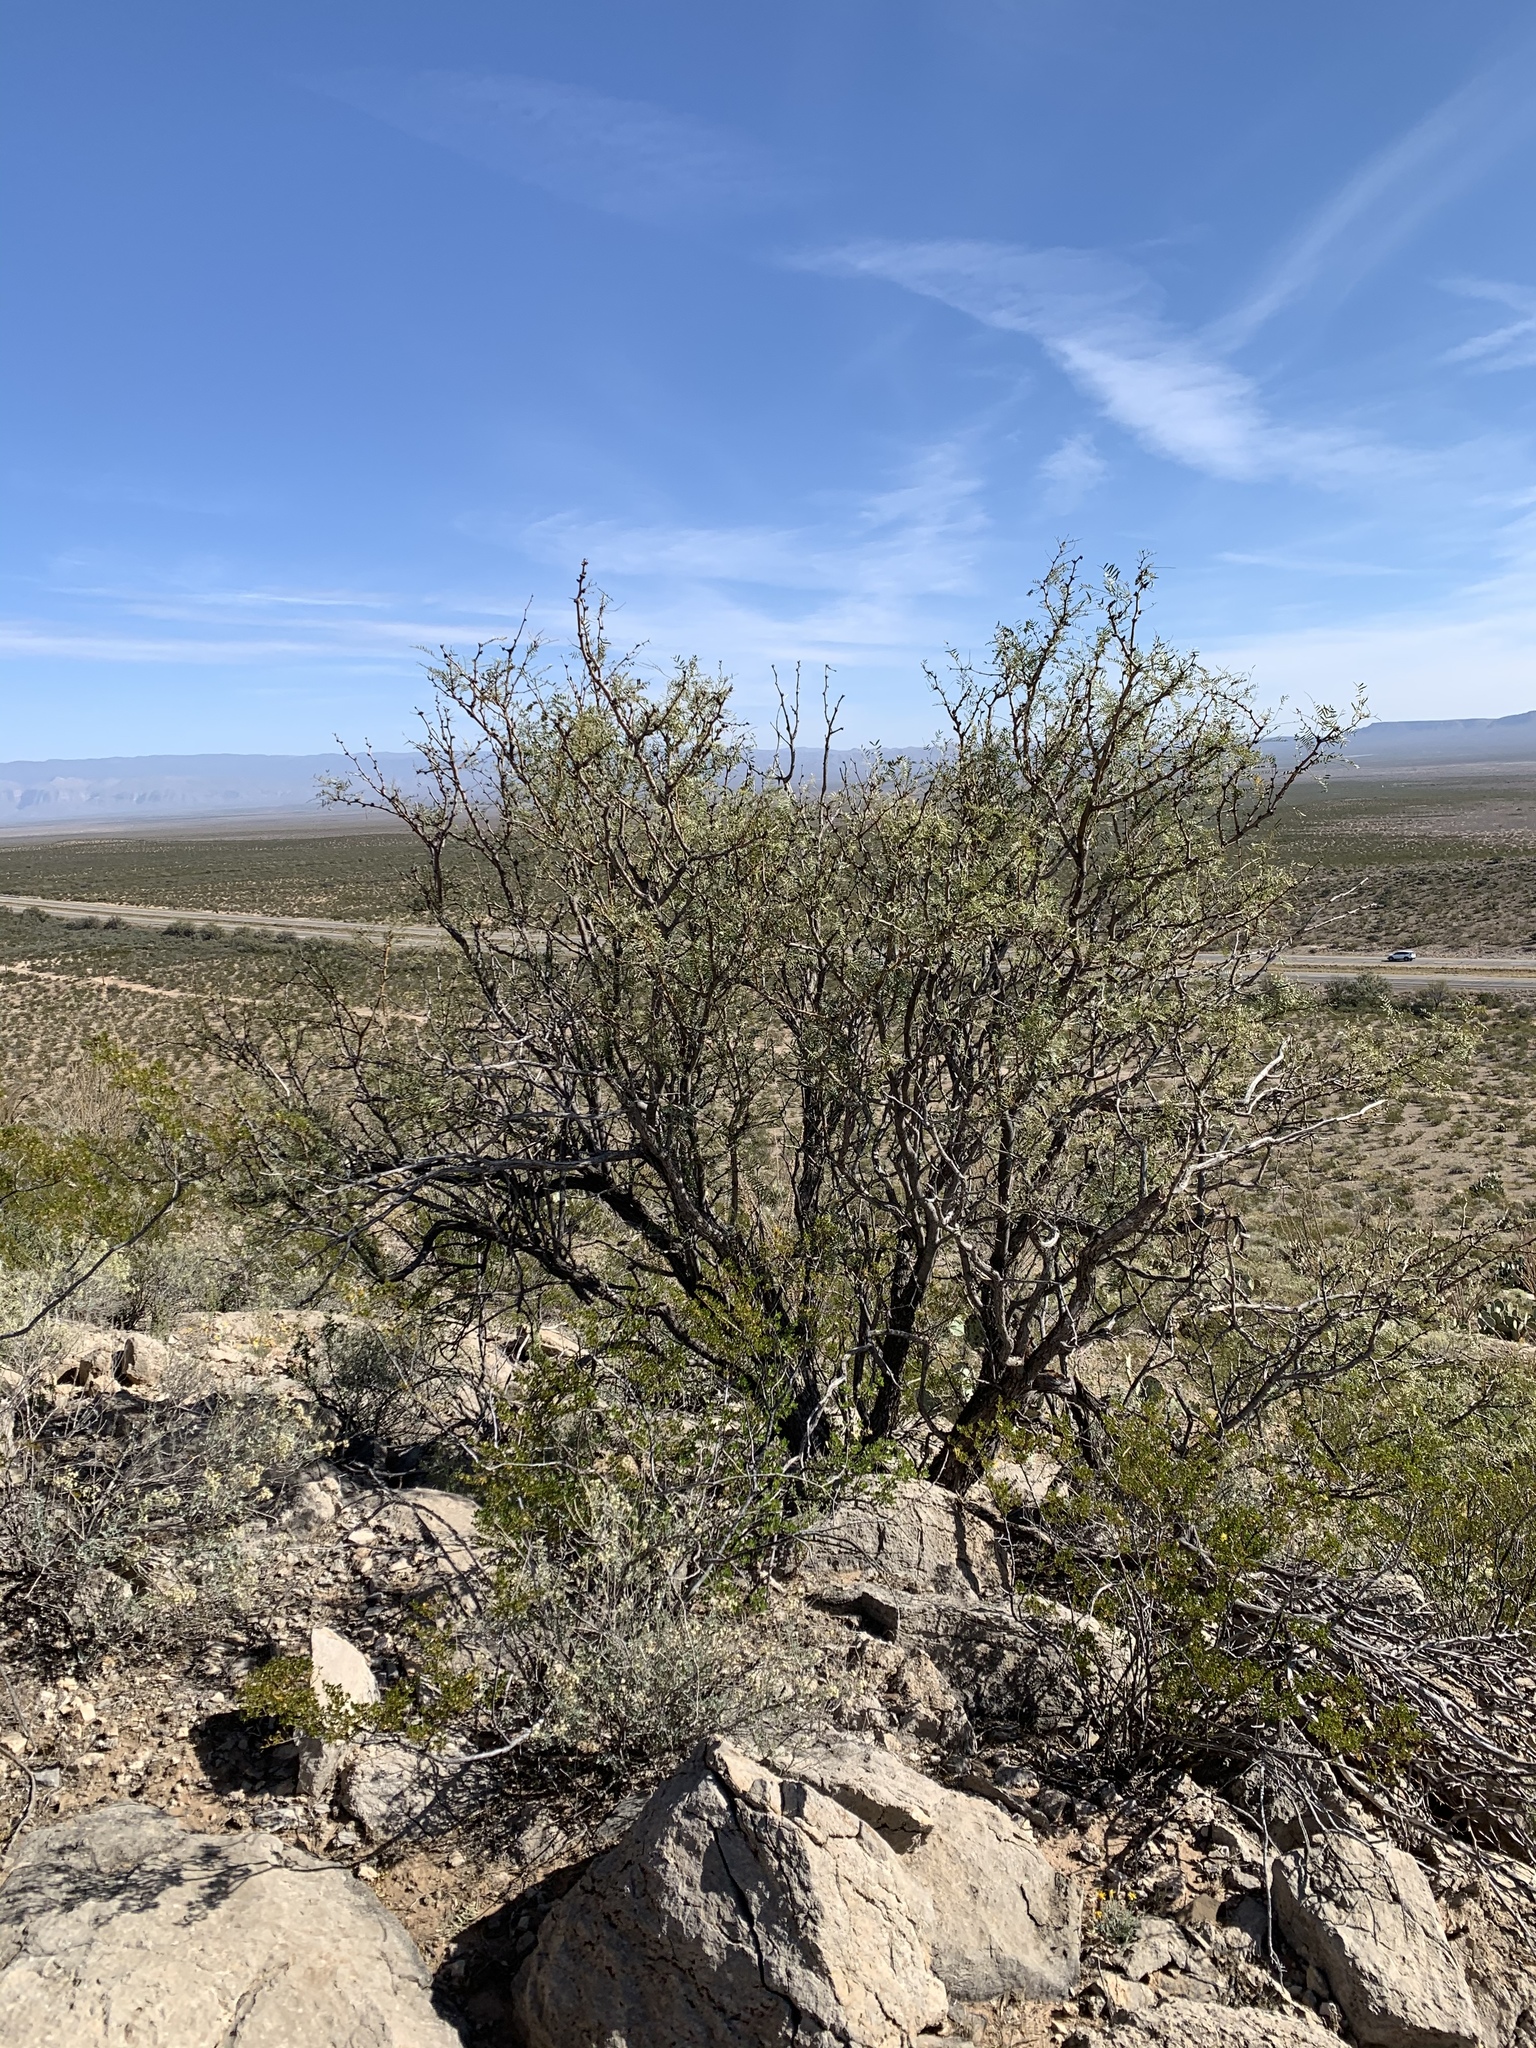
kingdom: Plantae
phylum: Tracheophyta
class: Magnoliopsida
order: Fabales
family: Fabaceae
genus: Prosopis
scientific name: Prosopis glandulosa
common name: Honey mesquite
